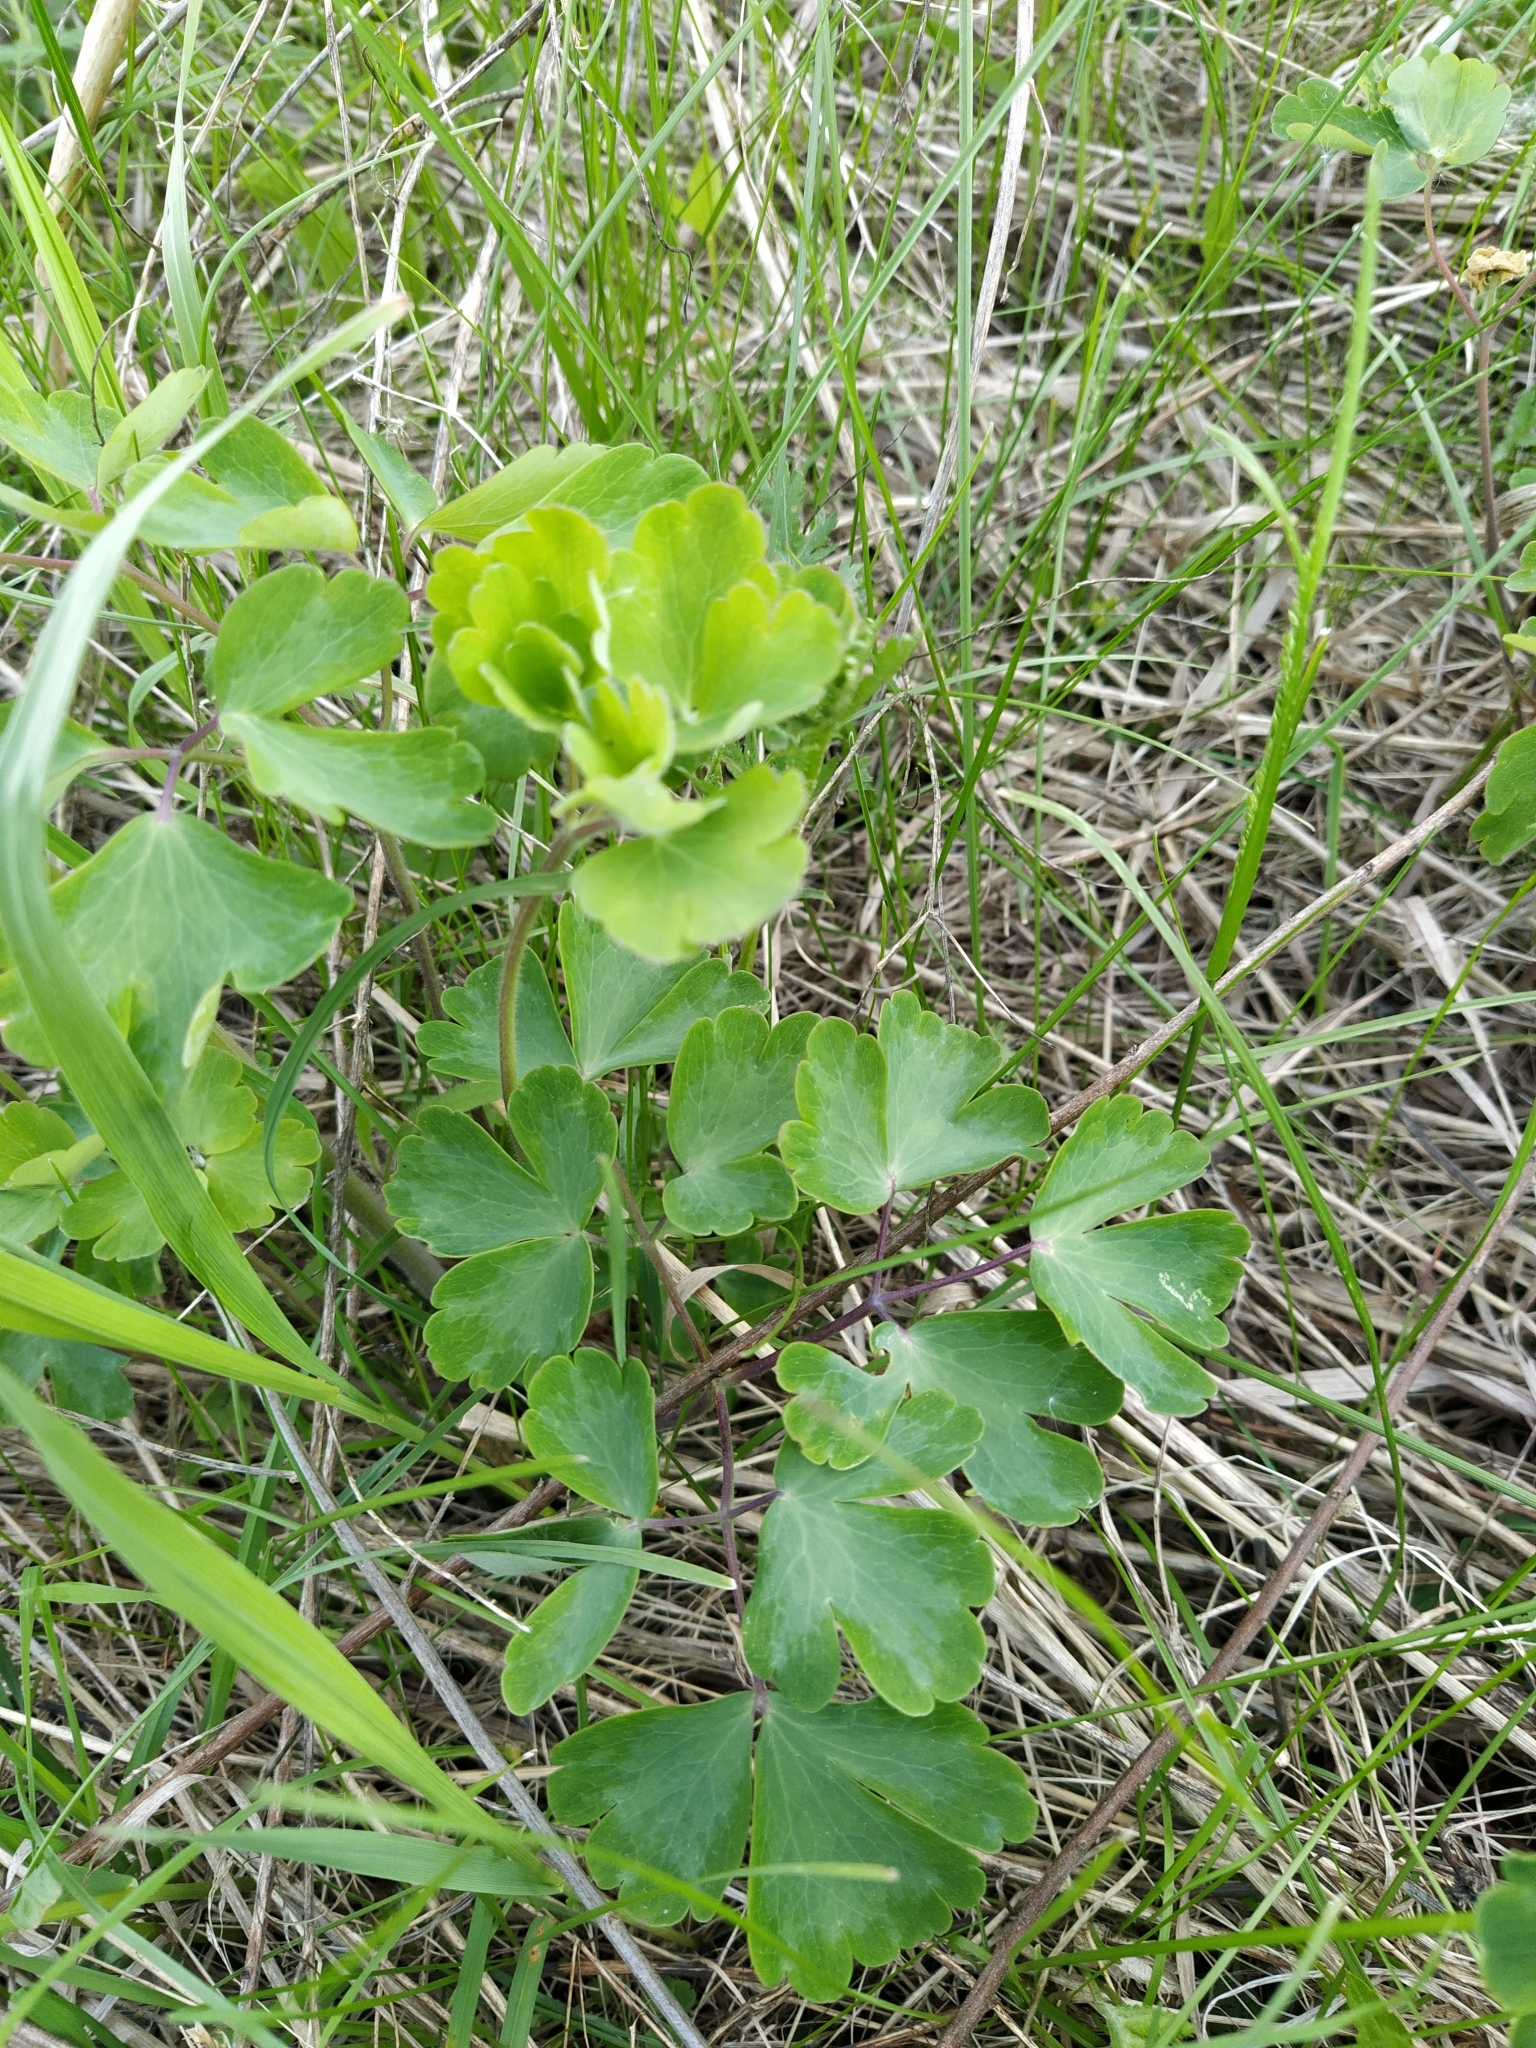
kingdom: Plantae
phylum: Tracheophyta
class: Magnoliopsida
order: Ranunculales
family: Ranunculaceae
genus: Aquilegia
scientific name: Aquilegia vulgaris
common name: Columbine
